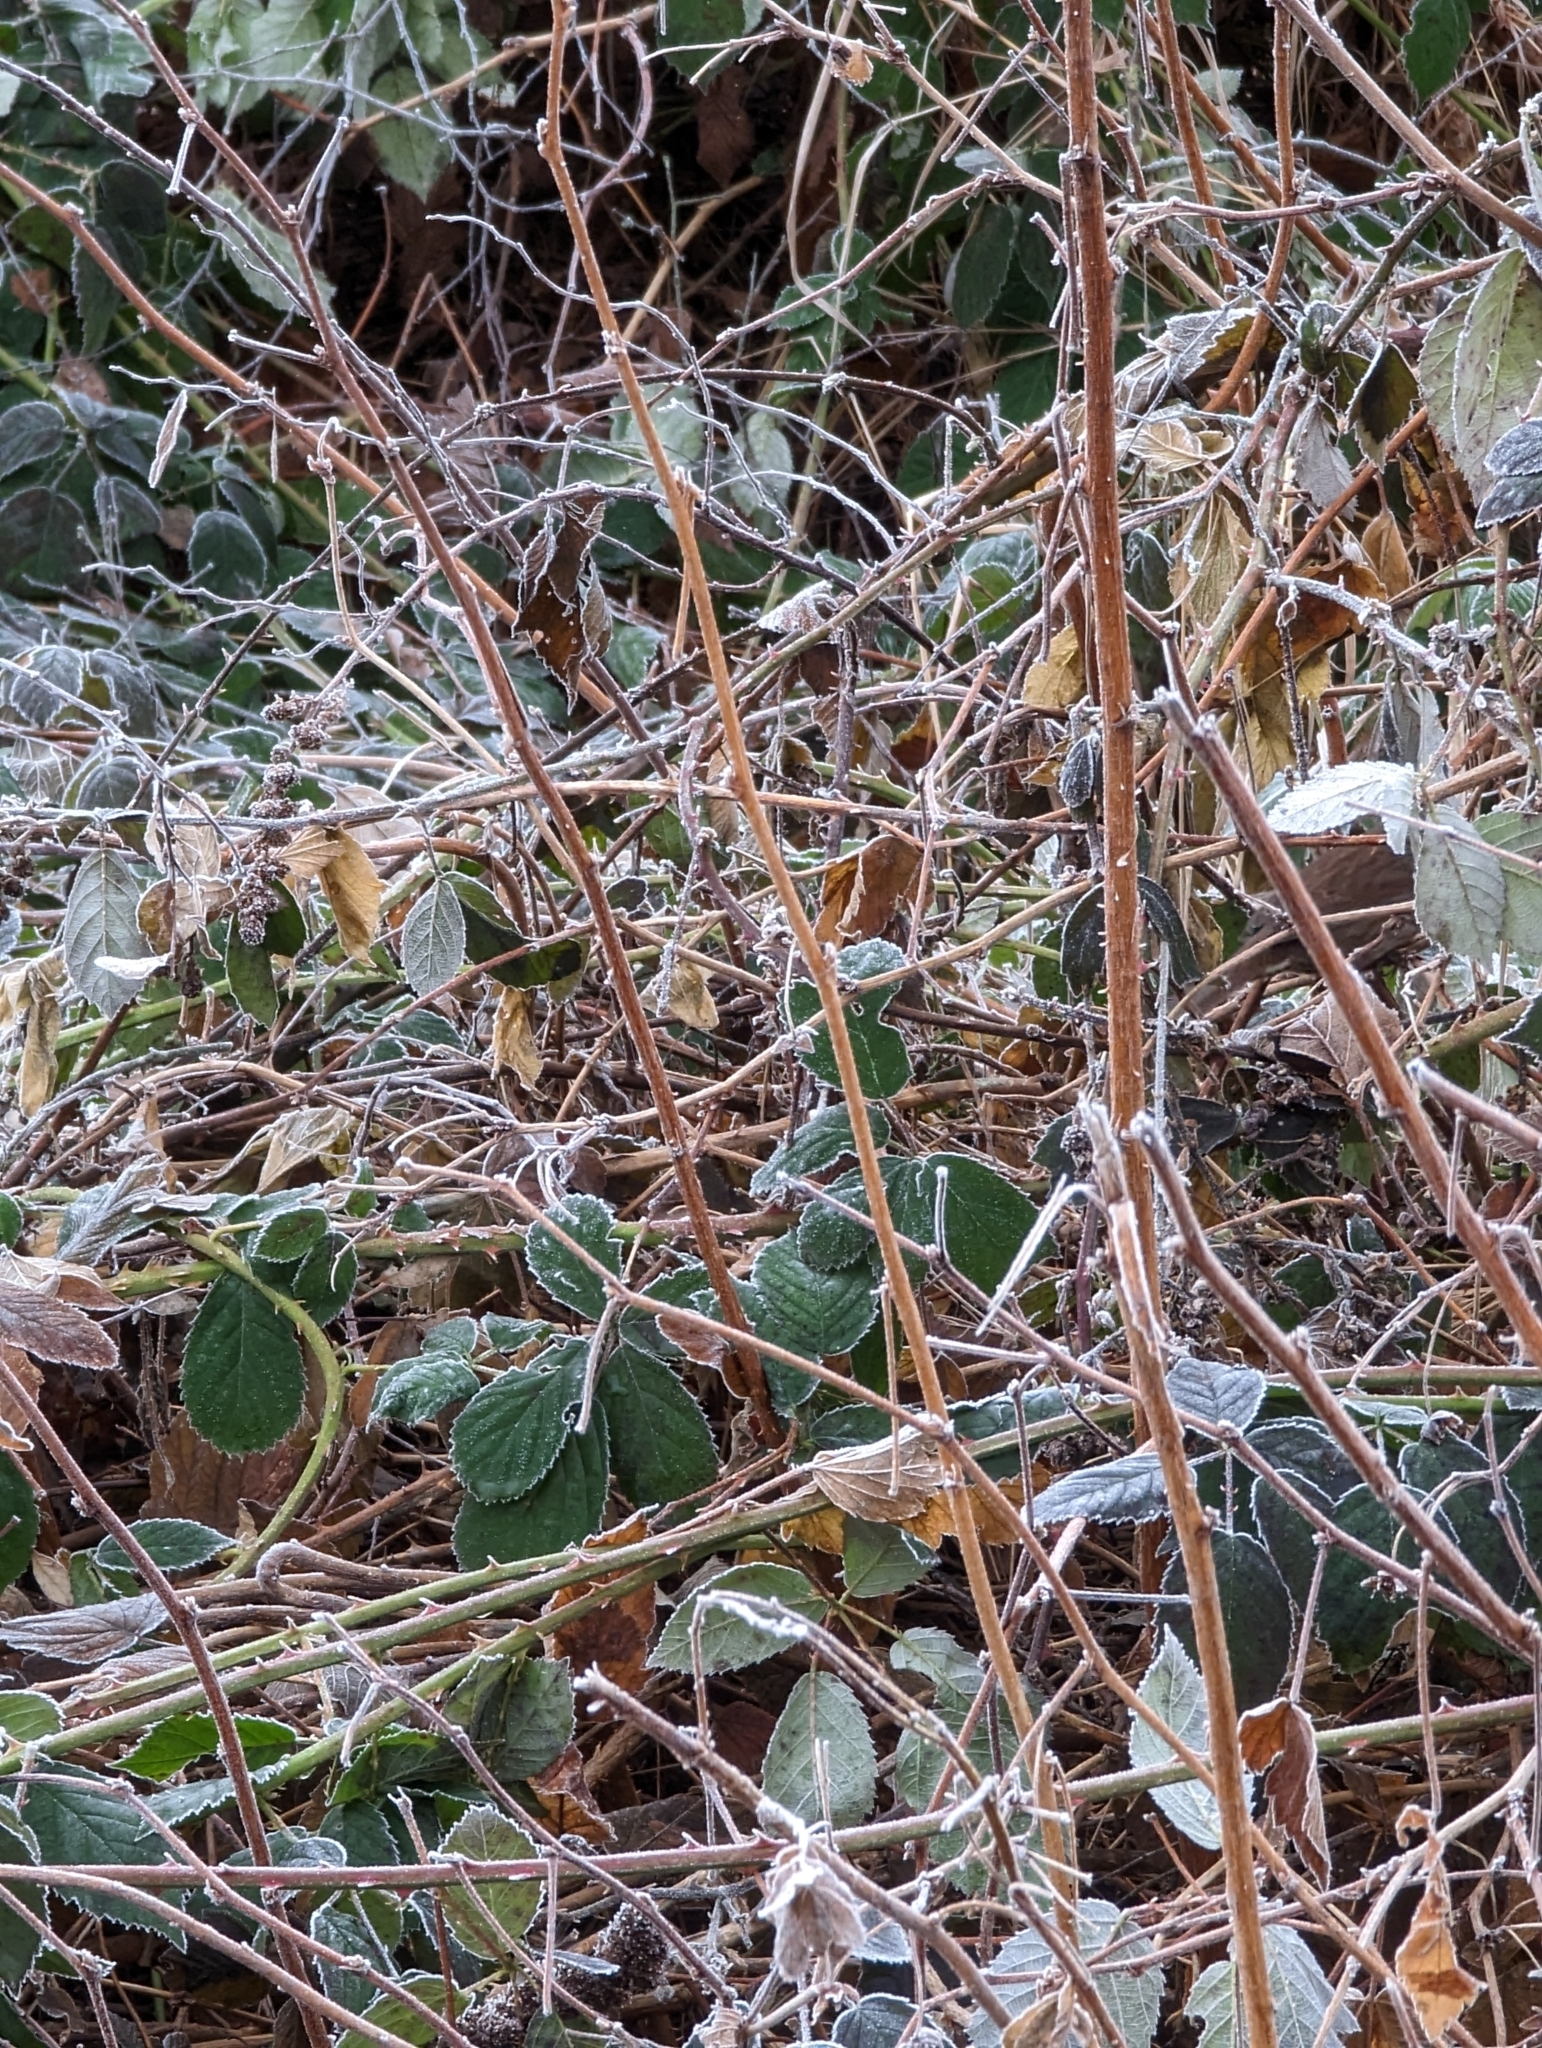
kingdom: Plantae
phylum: Tracheophyta
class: Magnoliopsida
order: Rosales
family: Rosaceae
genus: Rubus
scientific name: Rubus bifrons
